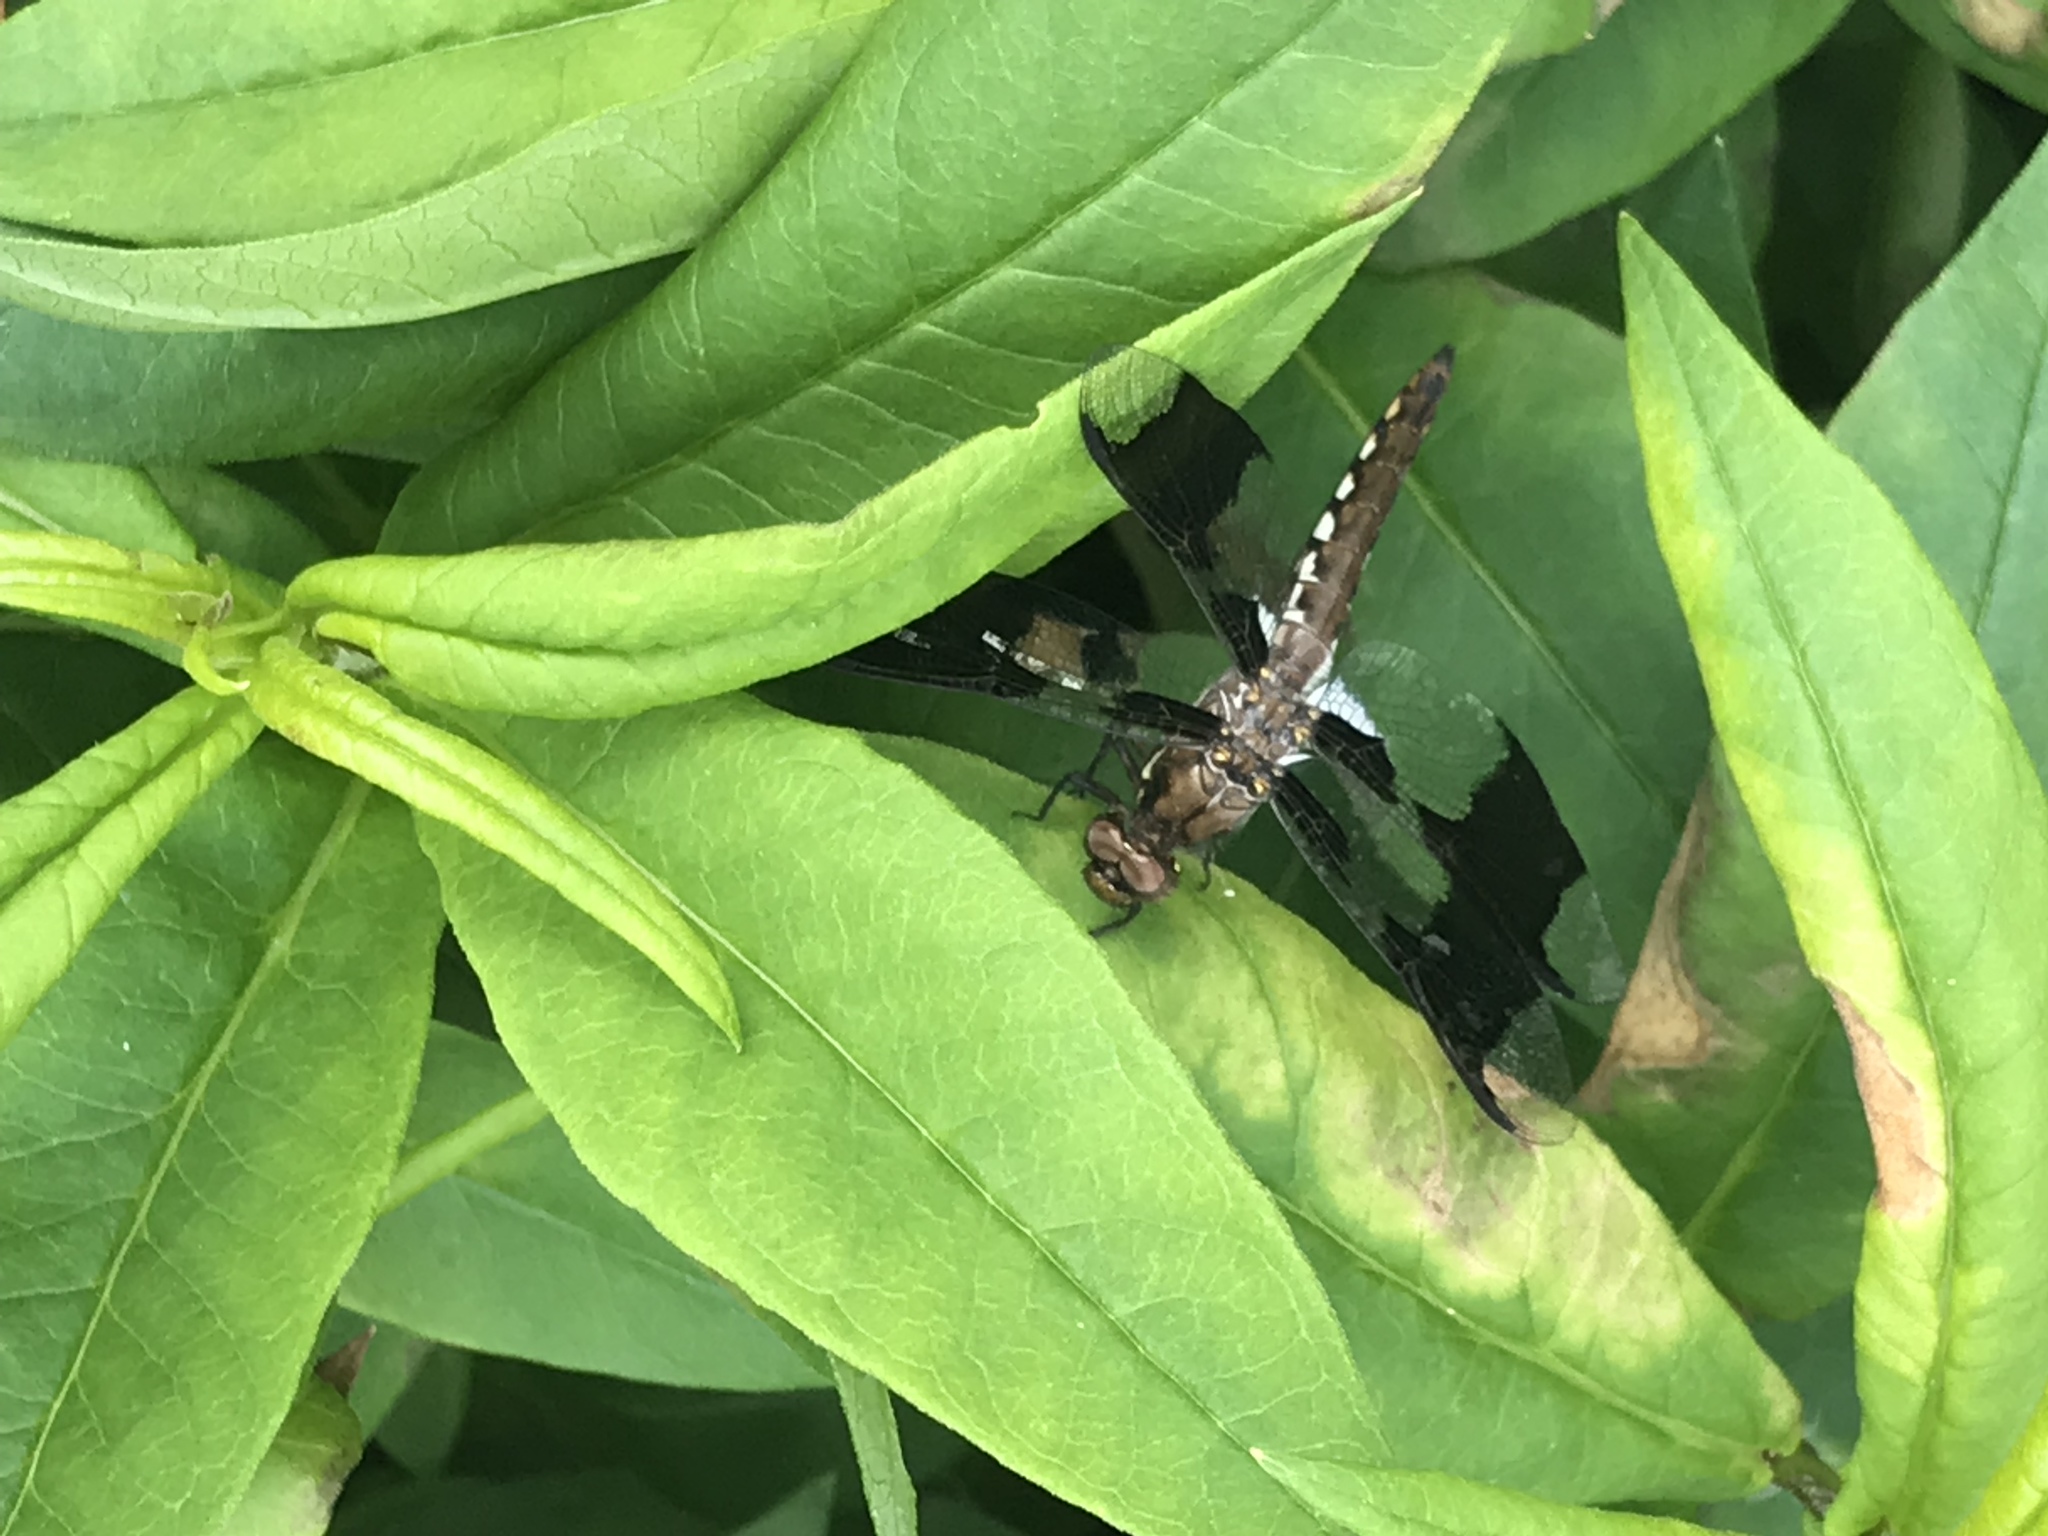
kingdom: Animalia
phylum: Arthropoda
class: Insecta
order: Odonata
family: Libellulidae
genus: Plathemis
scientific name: Plathemis lydia
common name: Common whitetail
